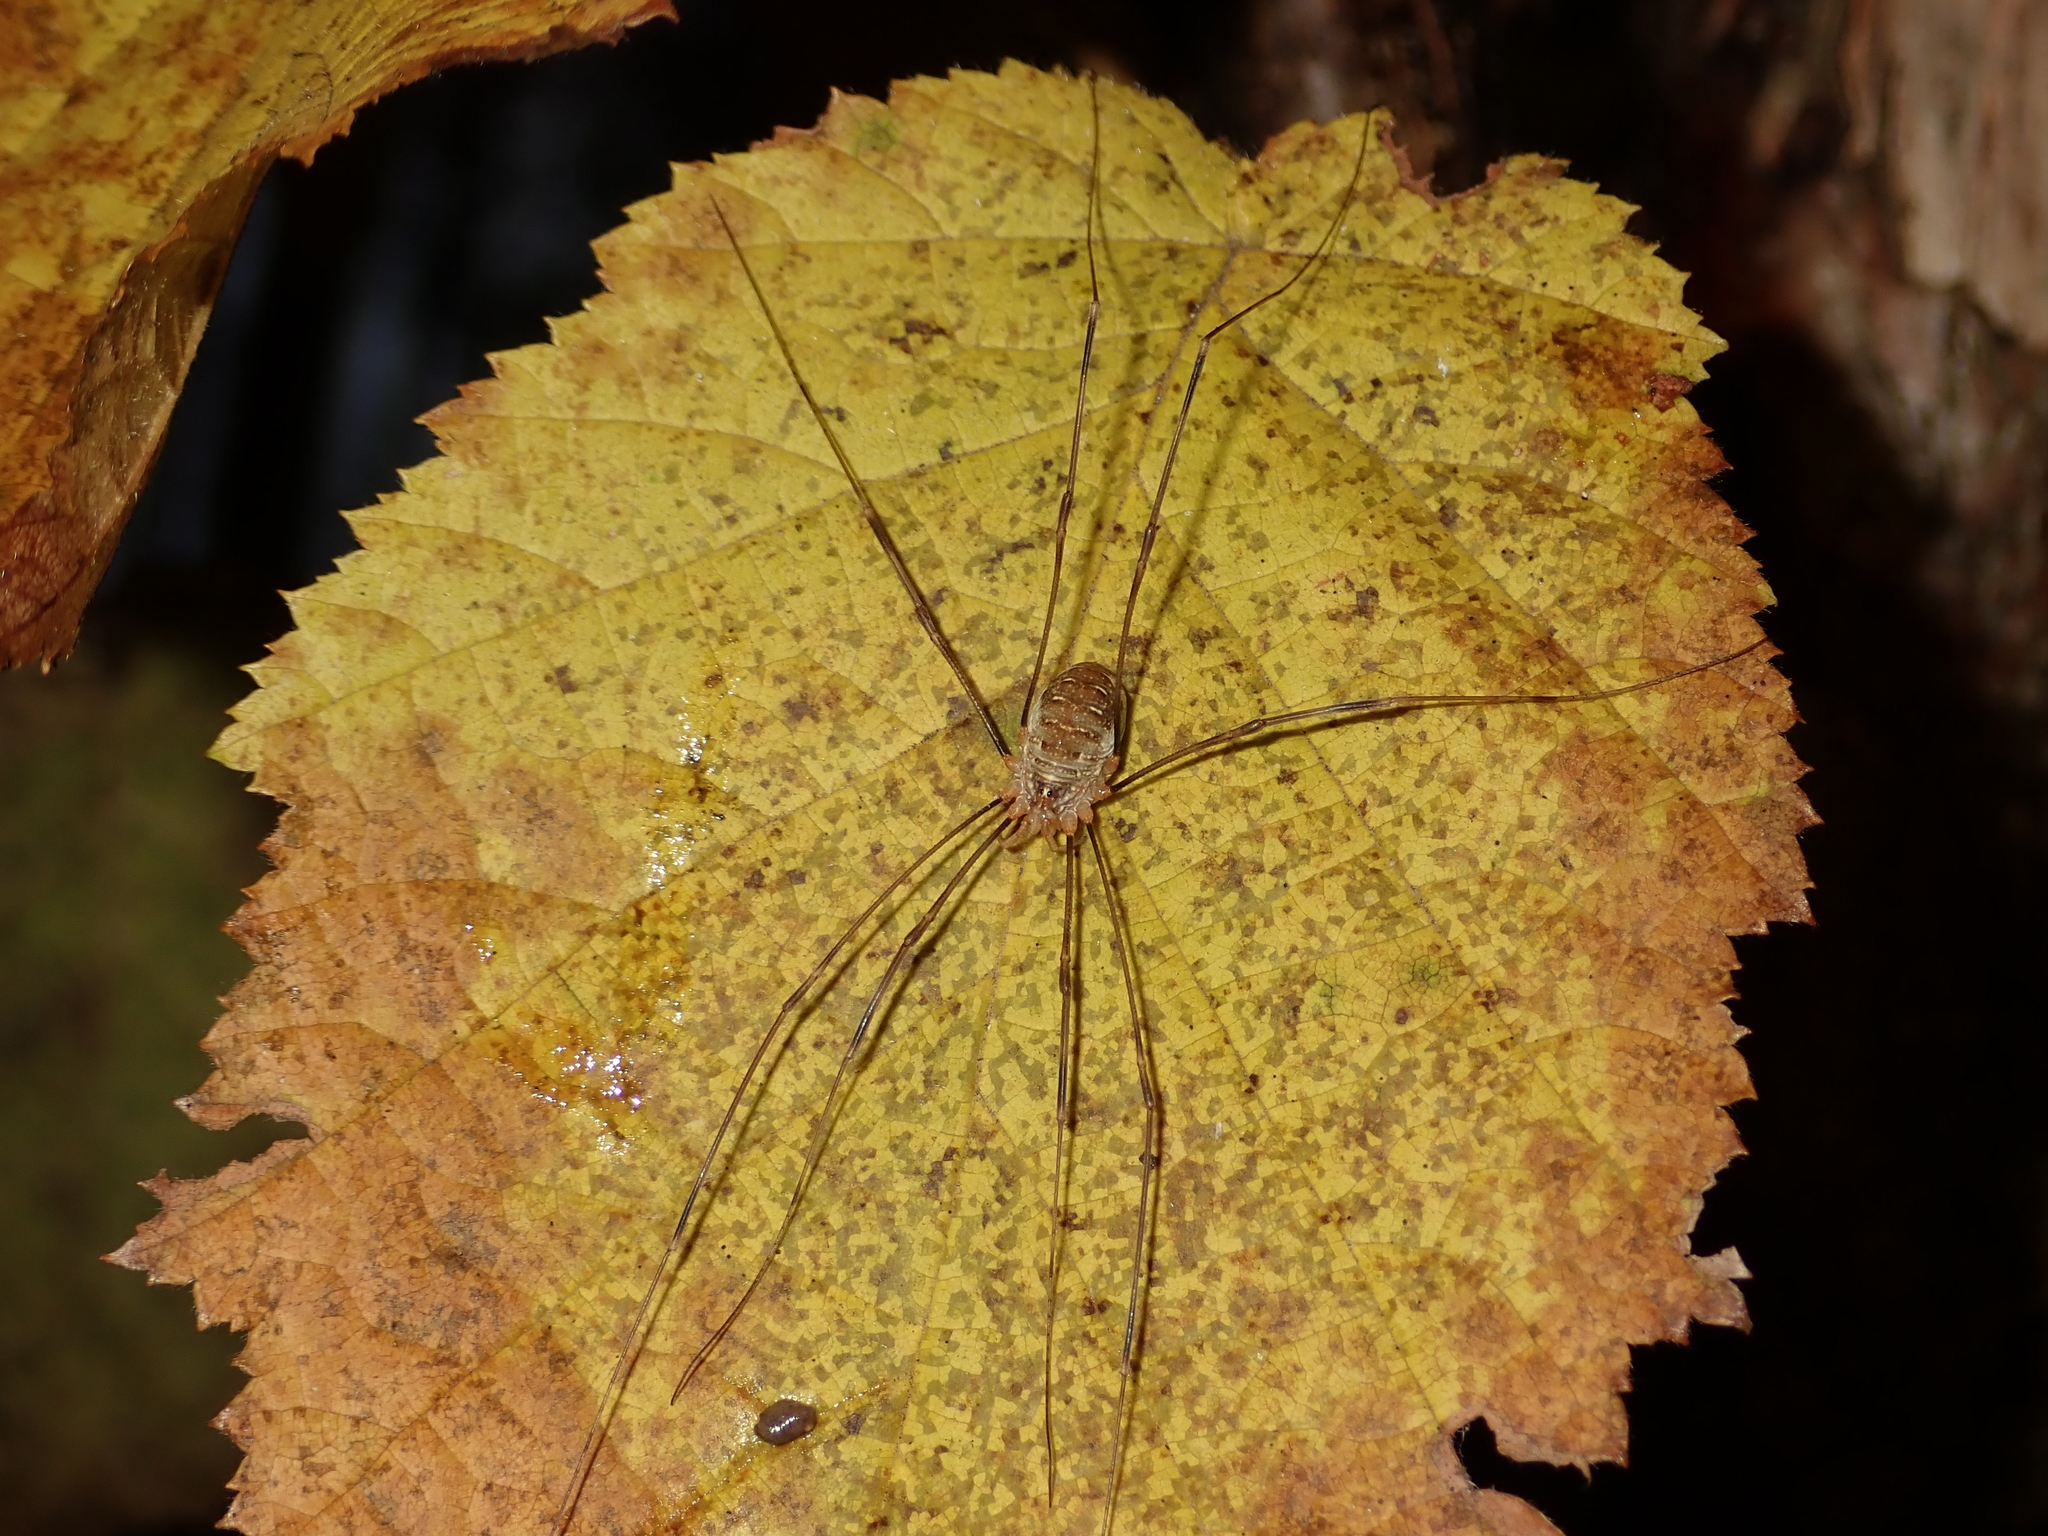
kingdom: Animalia
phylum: Arthropoda
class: Arachnida
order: Opiliones
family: Phalangiidae
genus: Opilio
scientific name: Opilio canestrinii
